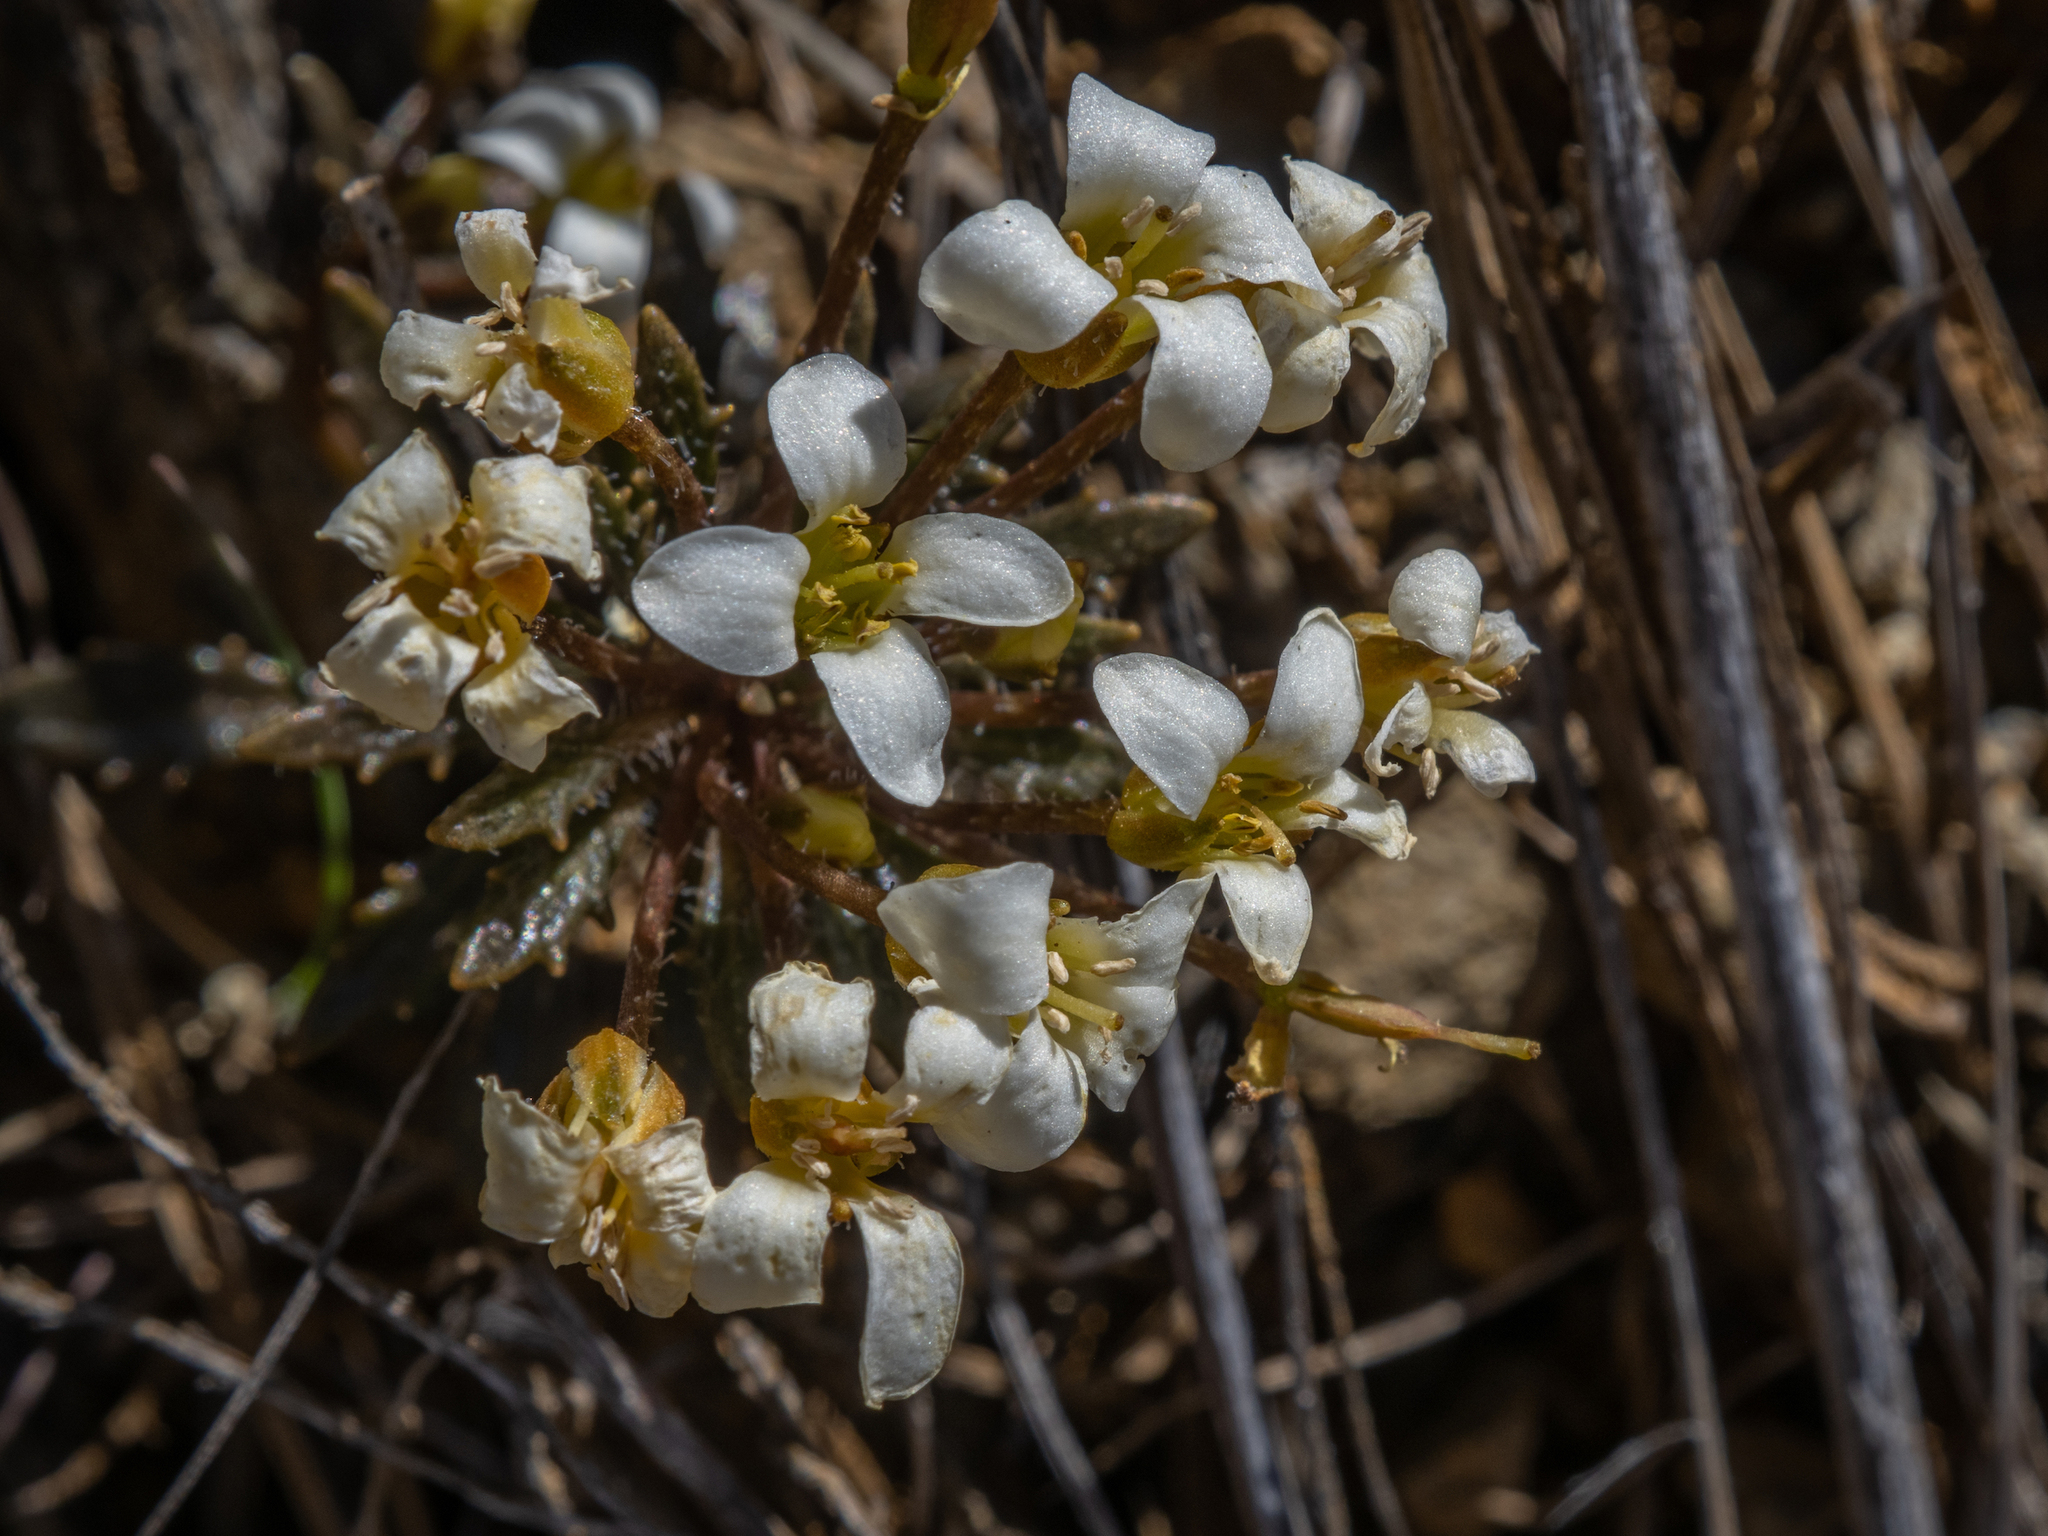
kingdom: Plantae
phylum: Tracheophyta
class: Magnoliopsida
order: Brassicales
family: Brassicaceae
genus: Notothlaspi
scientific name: Notothlaspi australe
